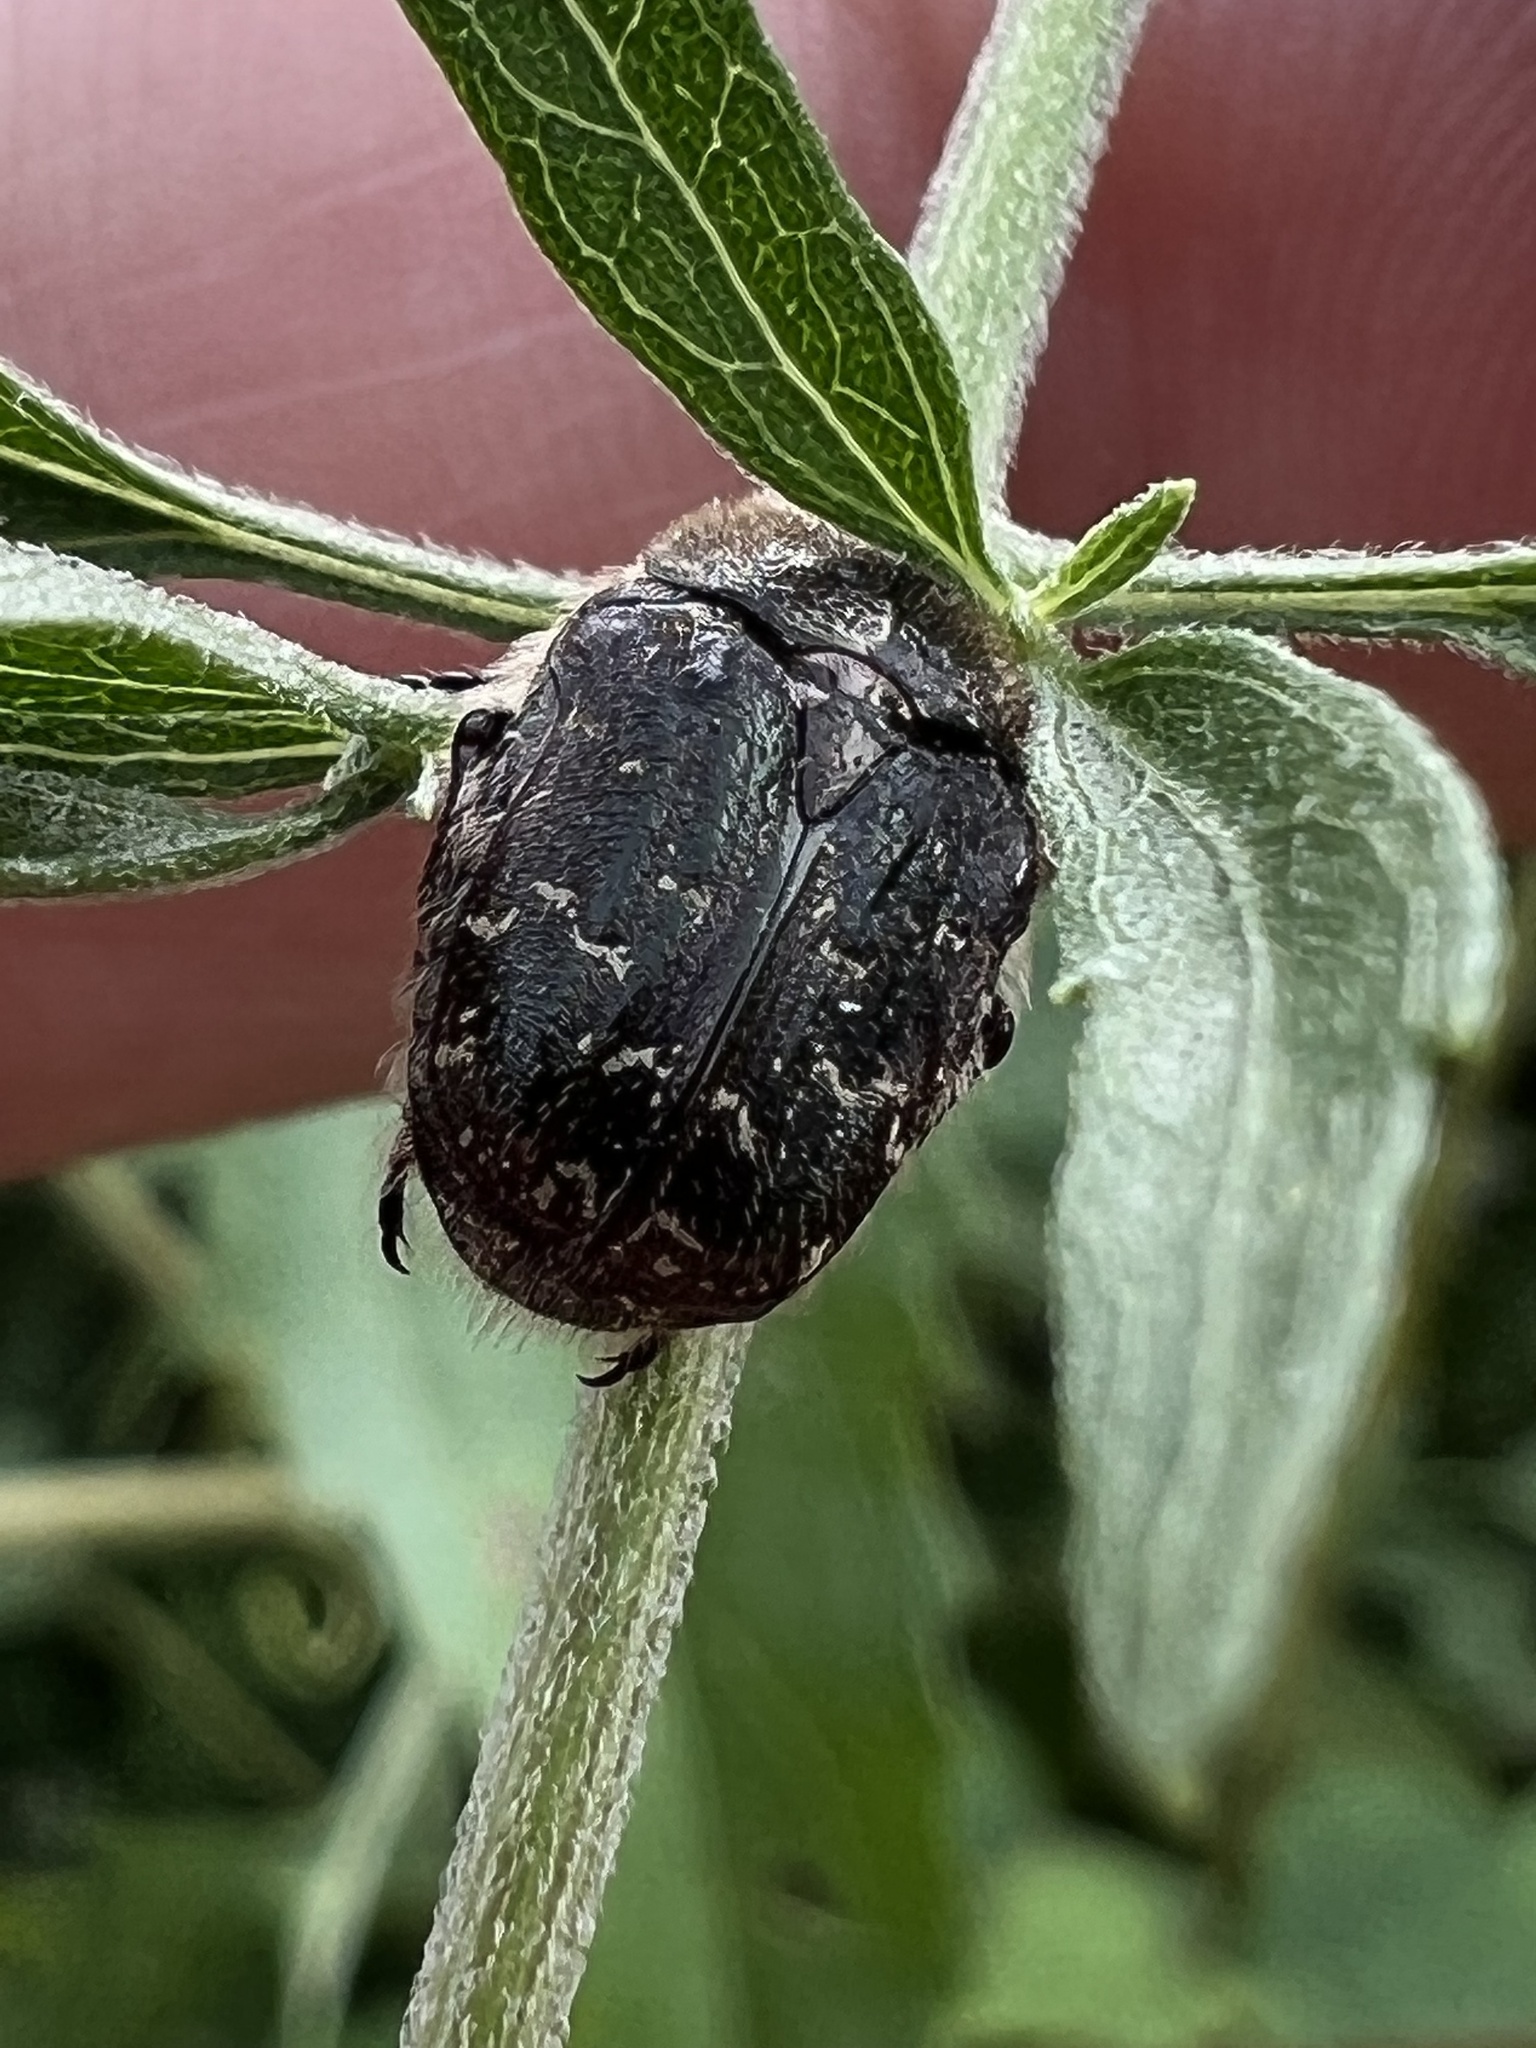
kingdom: Animalia
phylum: Arthropoda
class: Insecta
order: Coleoptera
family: Scarabaeidae
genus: Euphoria
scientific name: Euphoria sepulcralis
